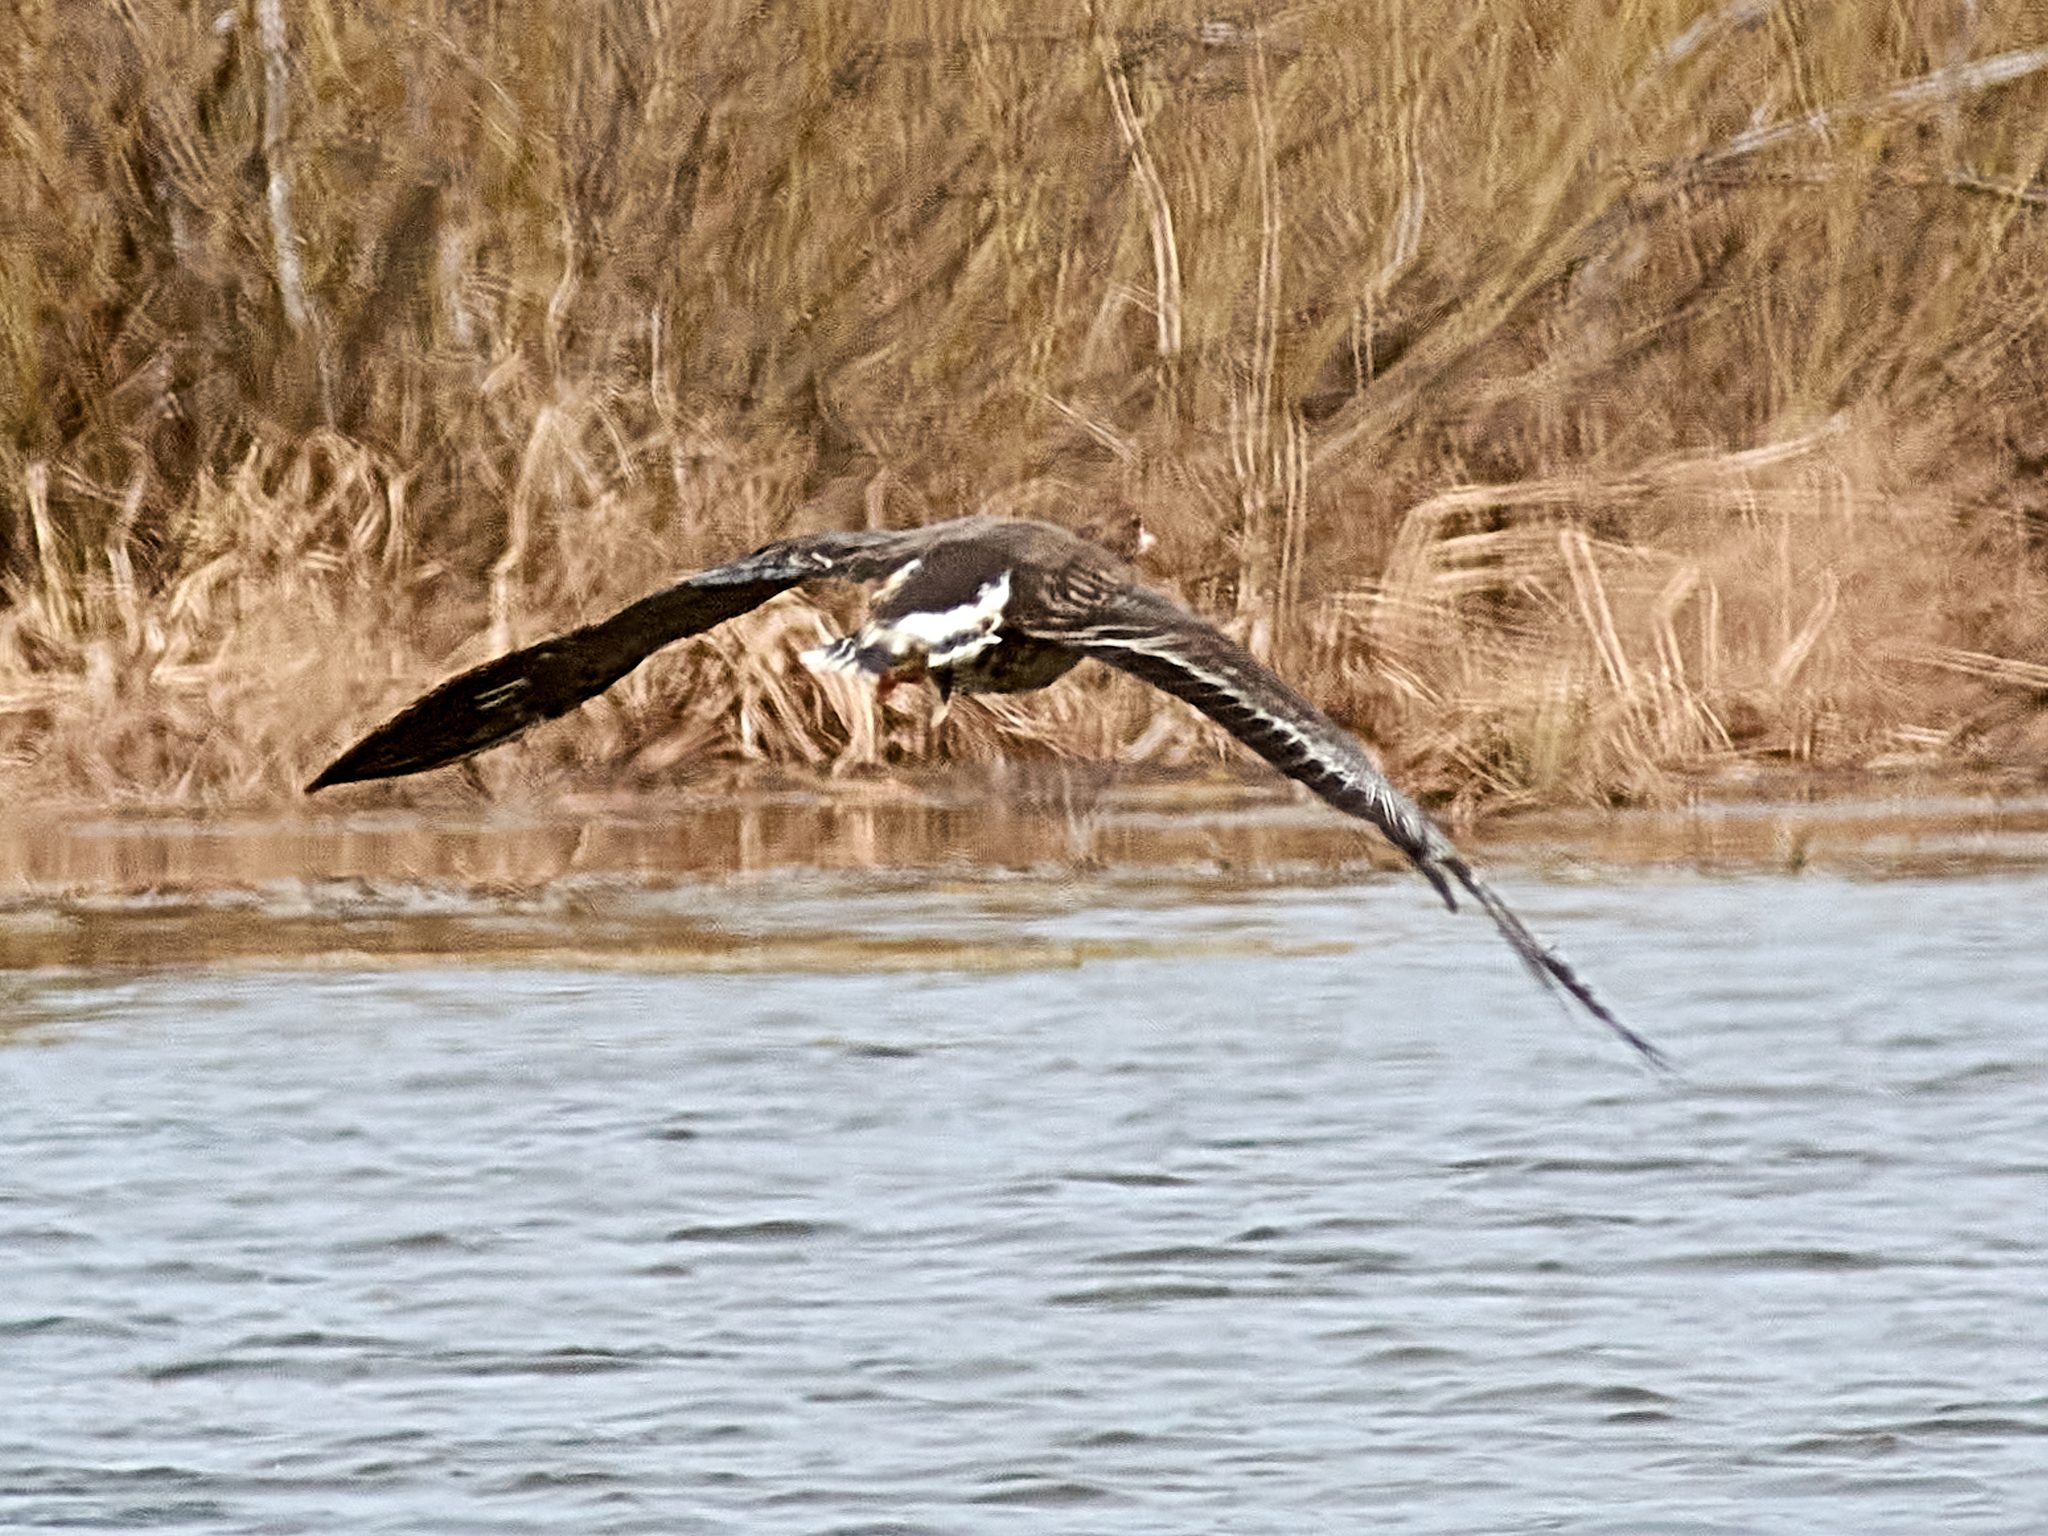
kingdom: Animalia
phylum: Chordata
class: Aves
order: Anseriformes
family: Anatidae
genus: Anser
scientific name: Anser albifrons
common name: Greater white-fronted goose
